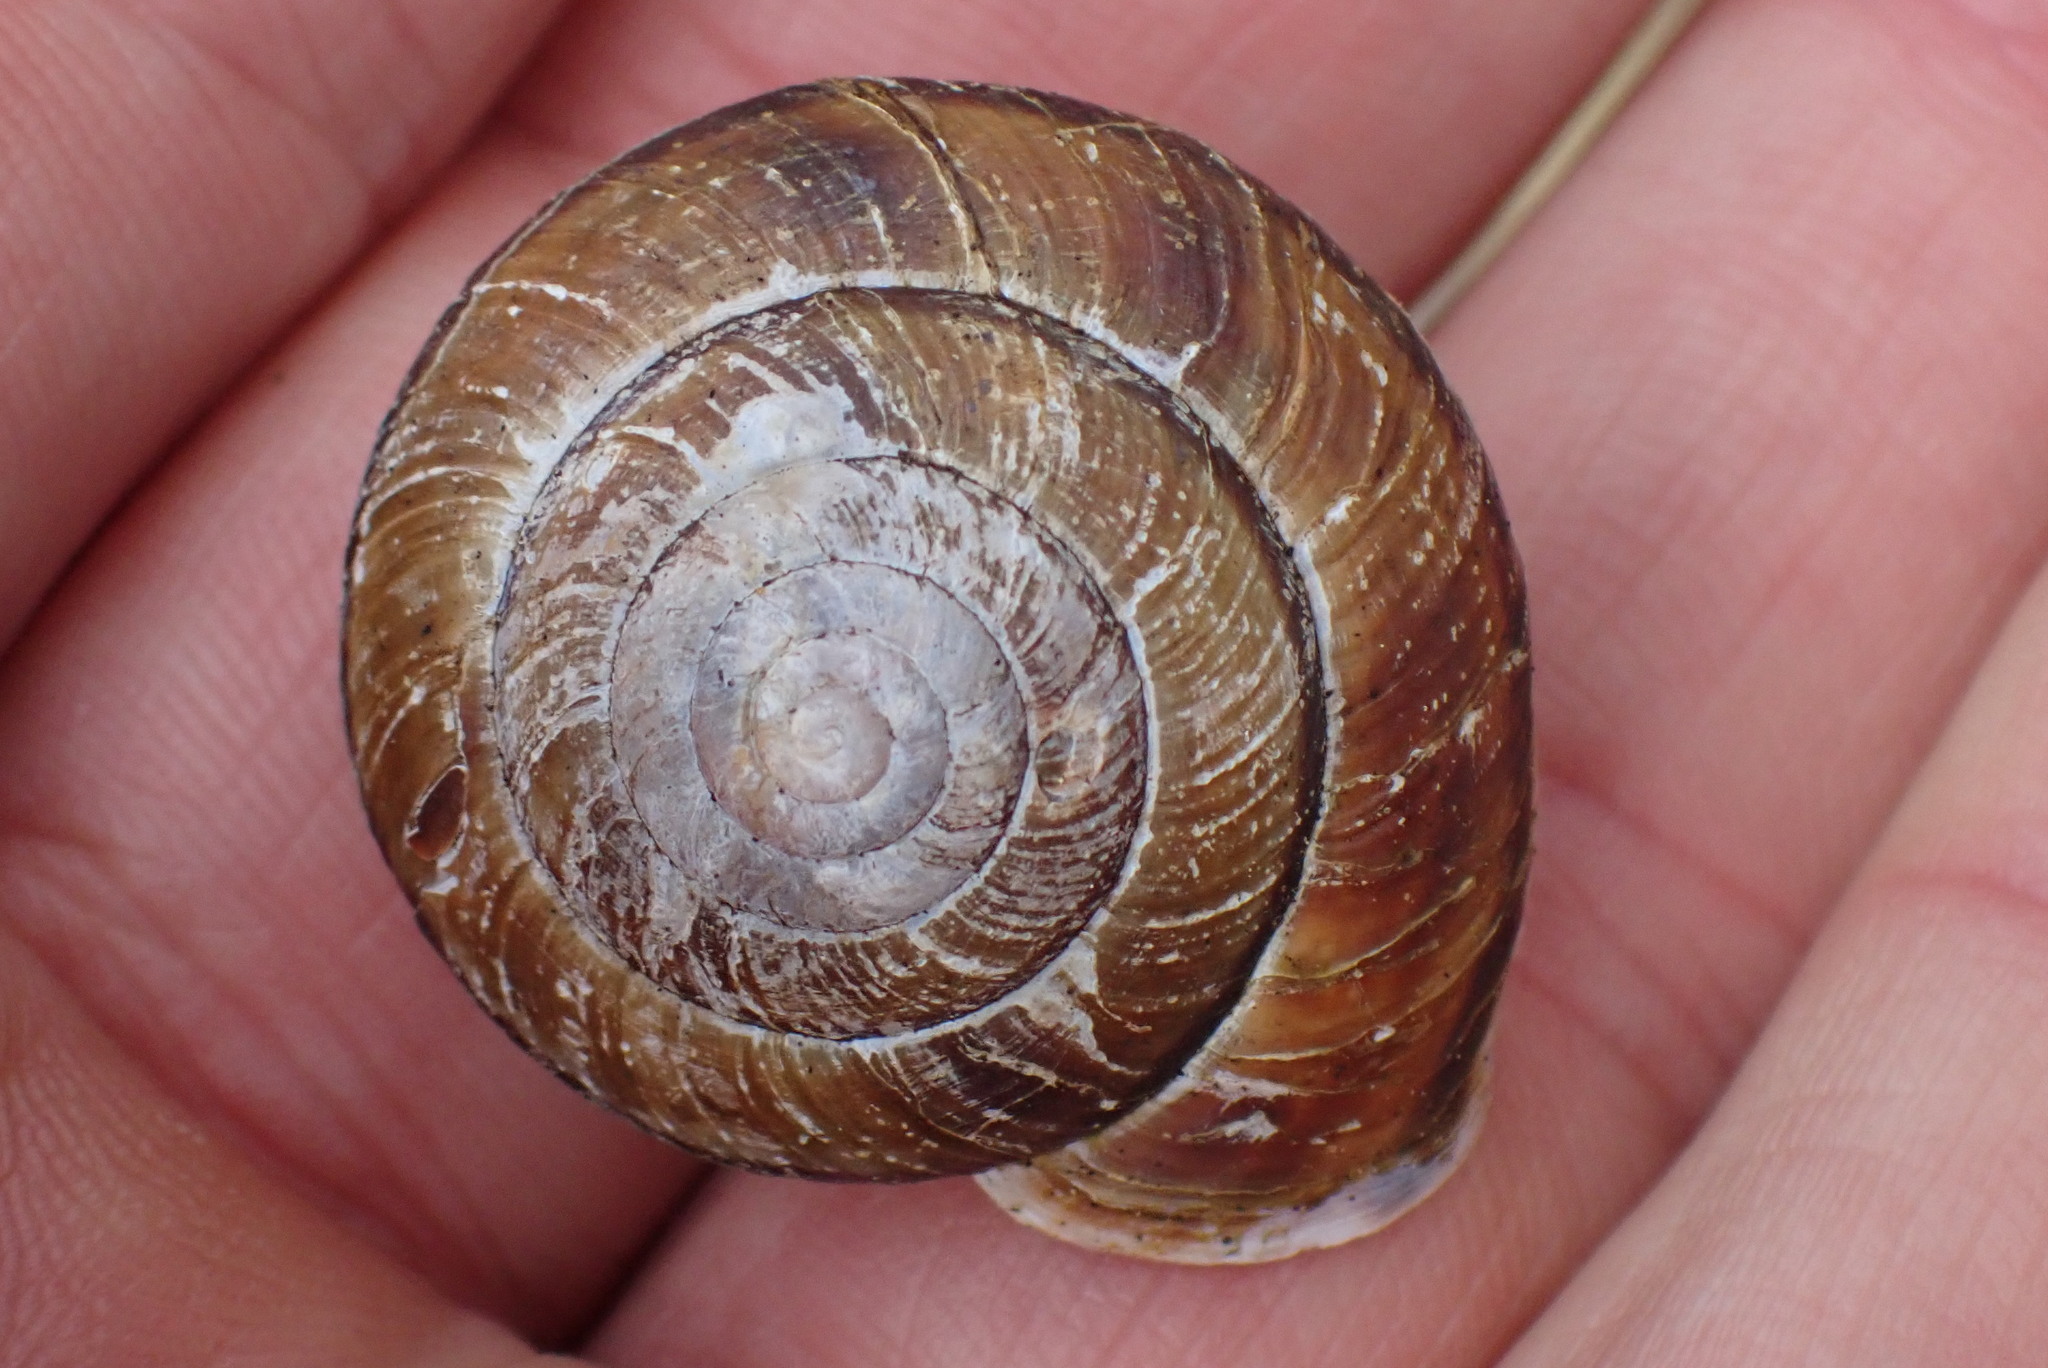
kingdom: Animalia
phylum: Mollusca
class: Gastropoda
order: Stylommatophora
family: Xanthonychidae
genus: Monadenia
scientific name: Monadenia fidelis
